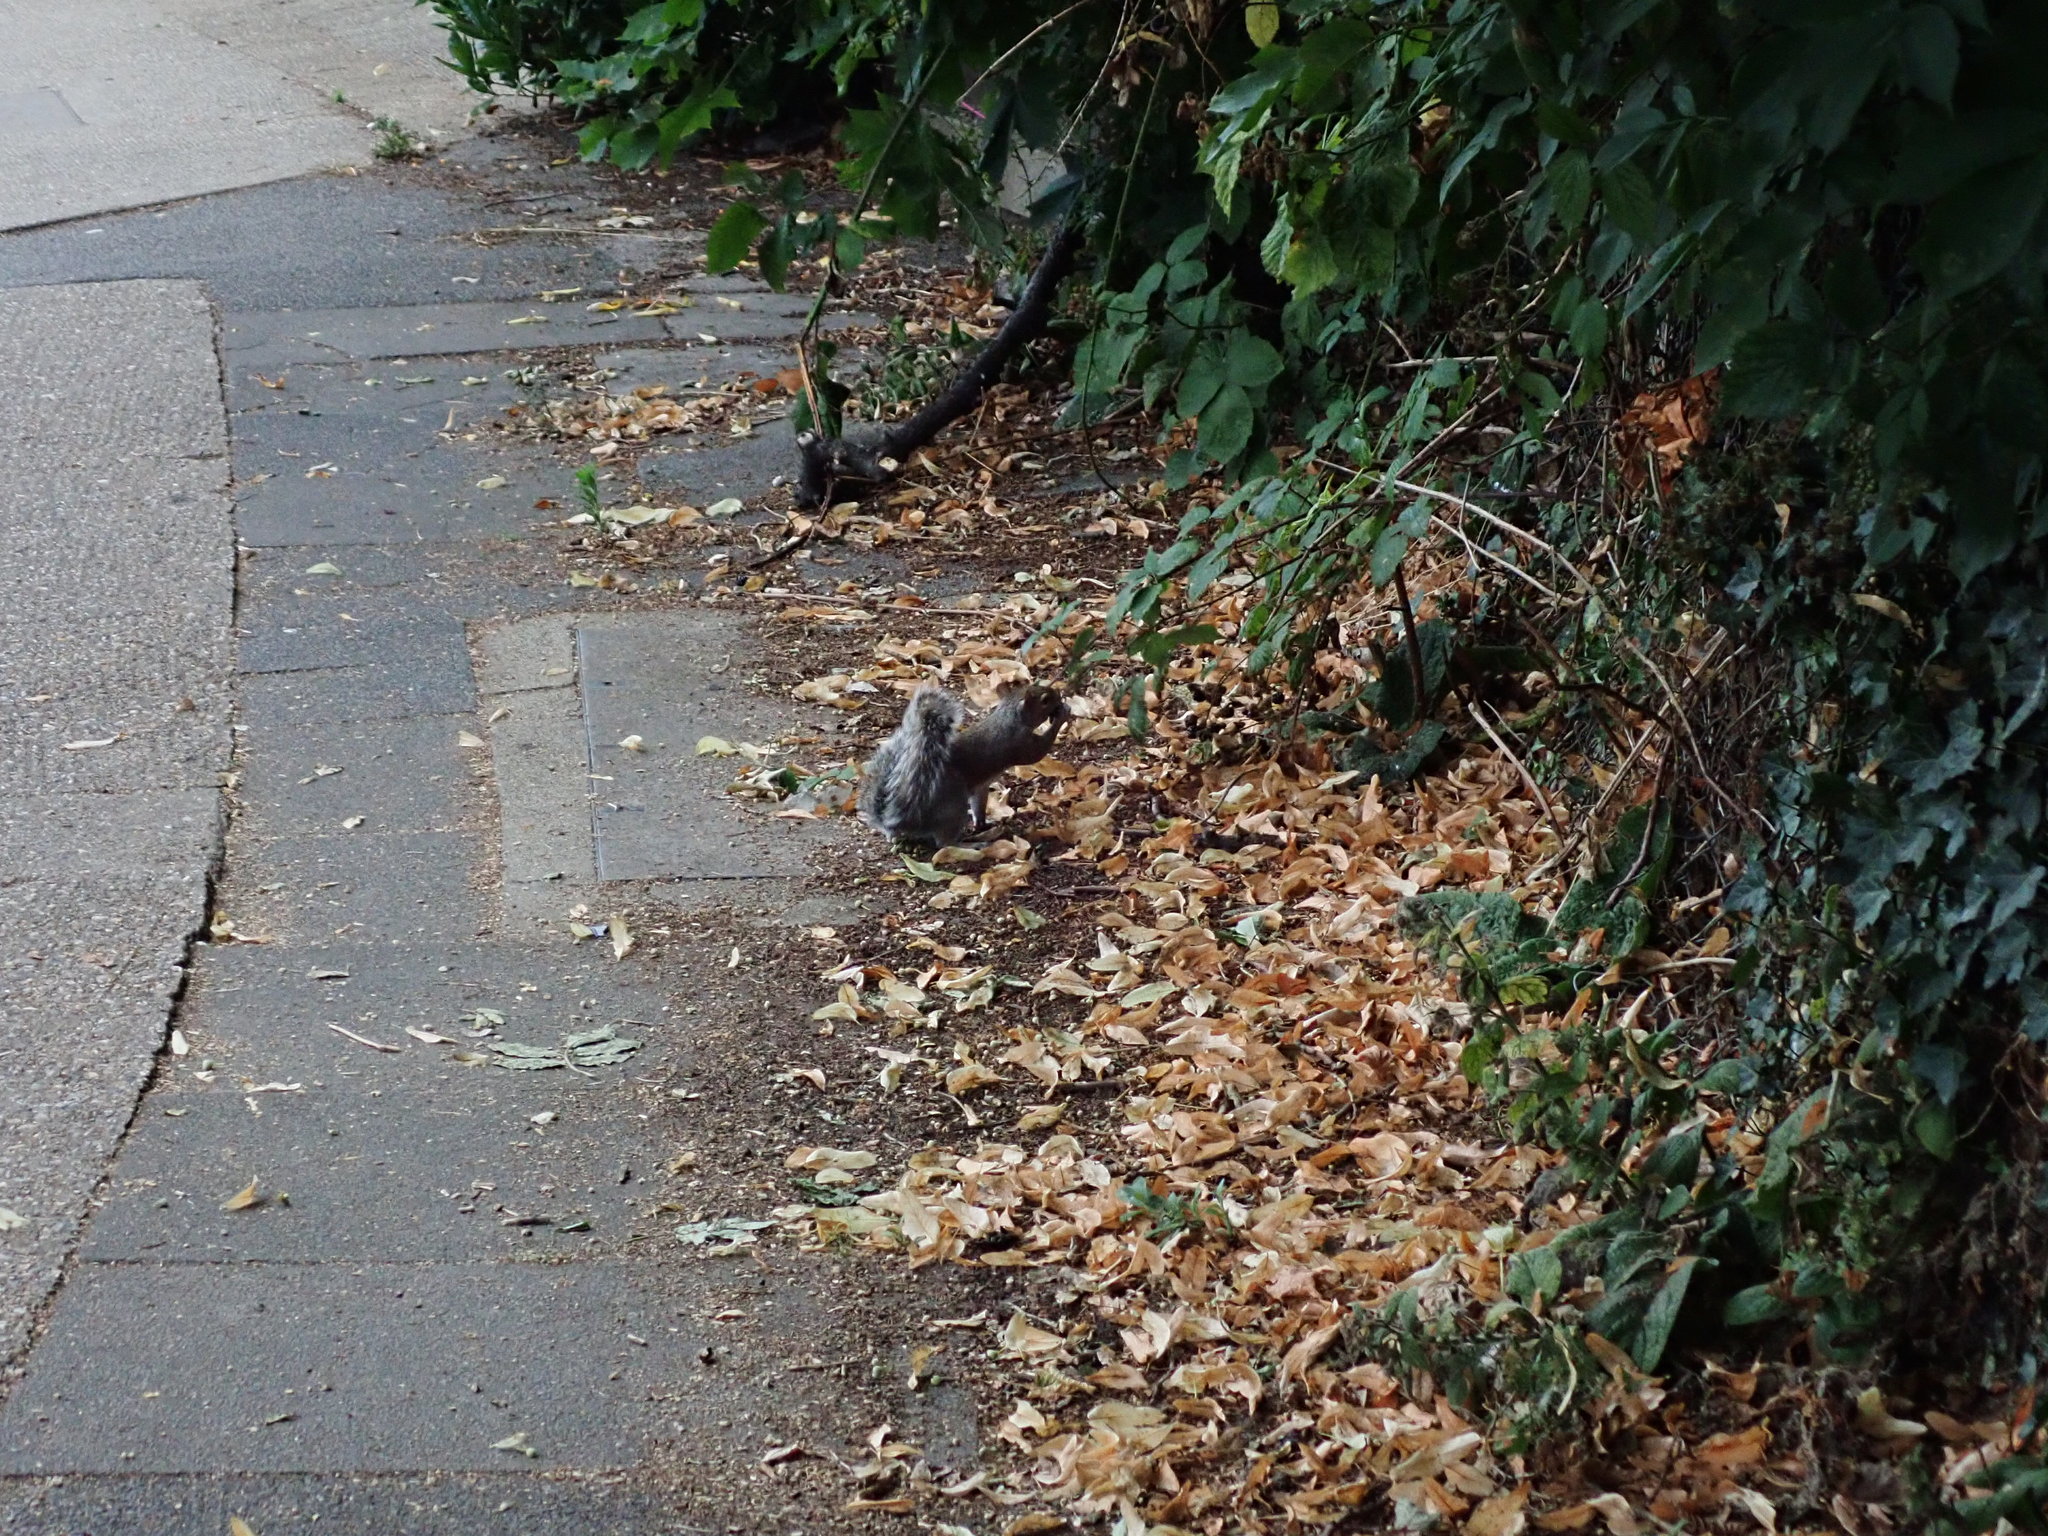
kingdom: Animalia
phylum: Chordata
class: Mammalia
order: Rodentia
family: Sciuridae
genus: Sciurus
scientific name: Sciurus carolinensis
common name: Eastern gray squirrel
